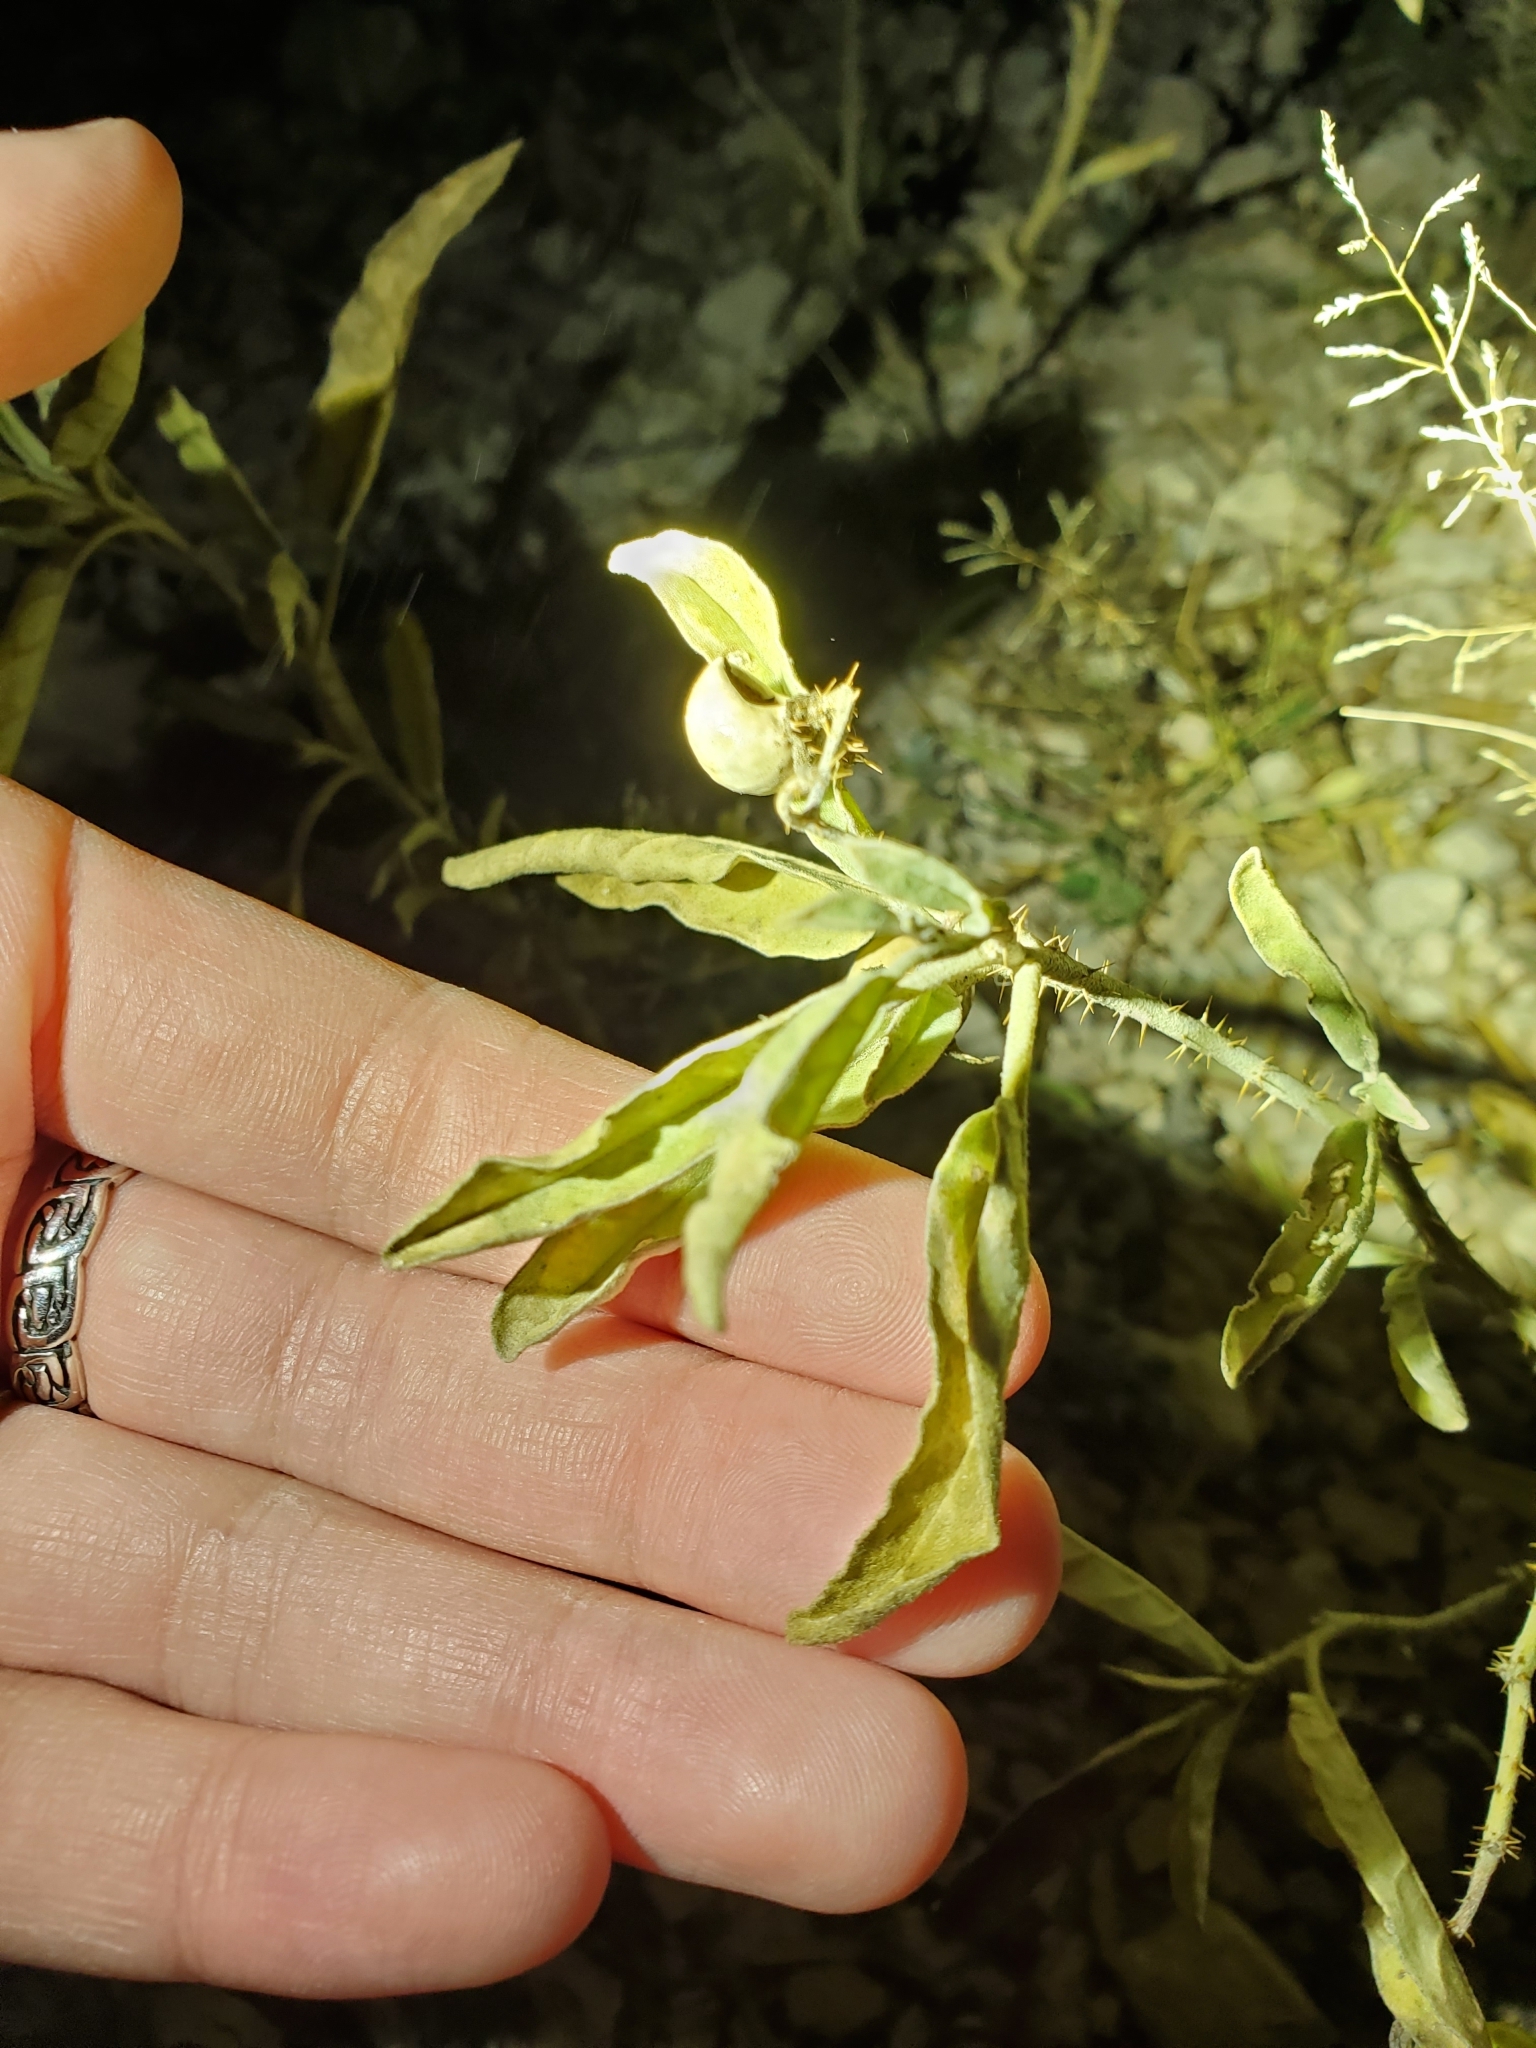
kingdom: Plantae
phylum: Tracheophyta
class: Magnoliopsida
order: Solanales
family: Solanaceae
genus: Solanum
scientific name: Solanum elaeagnifolium
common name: Silverleaf nightshade
